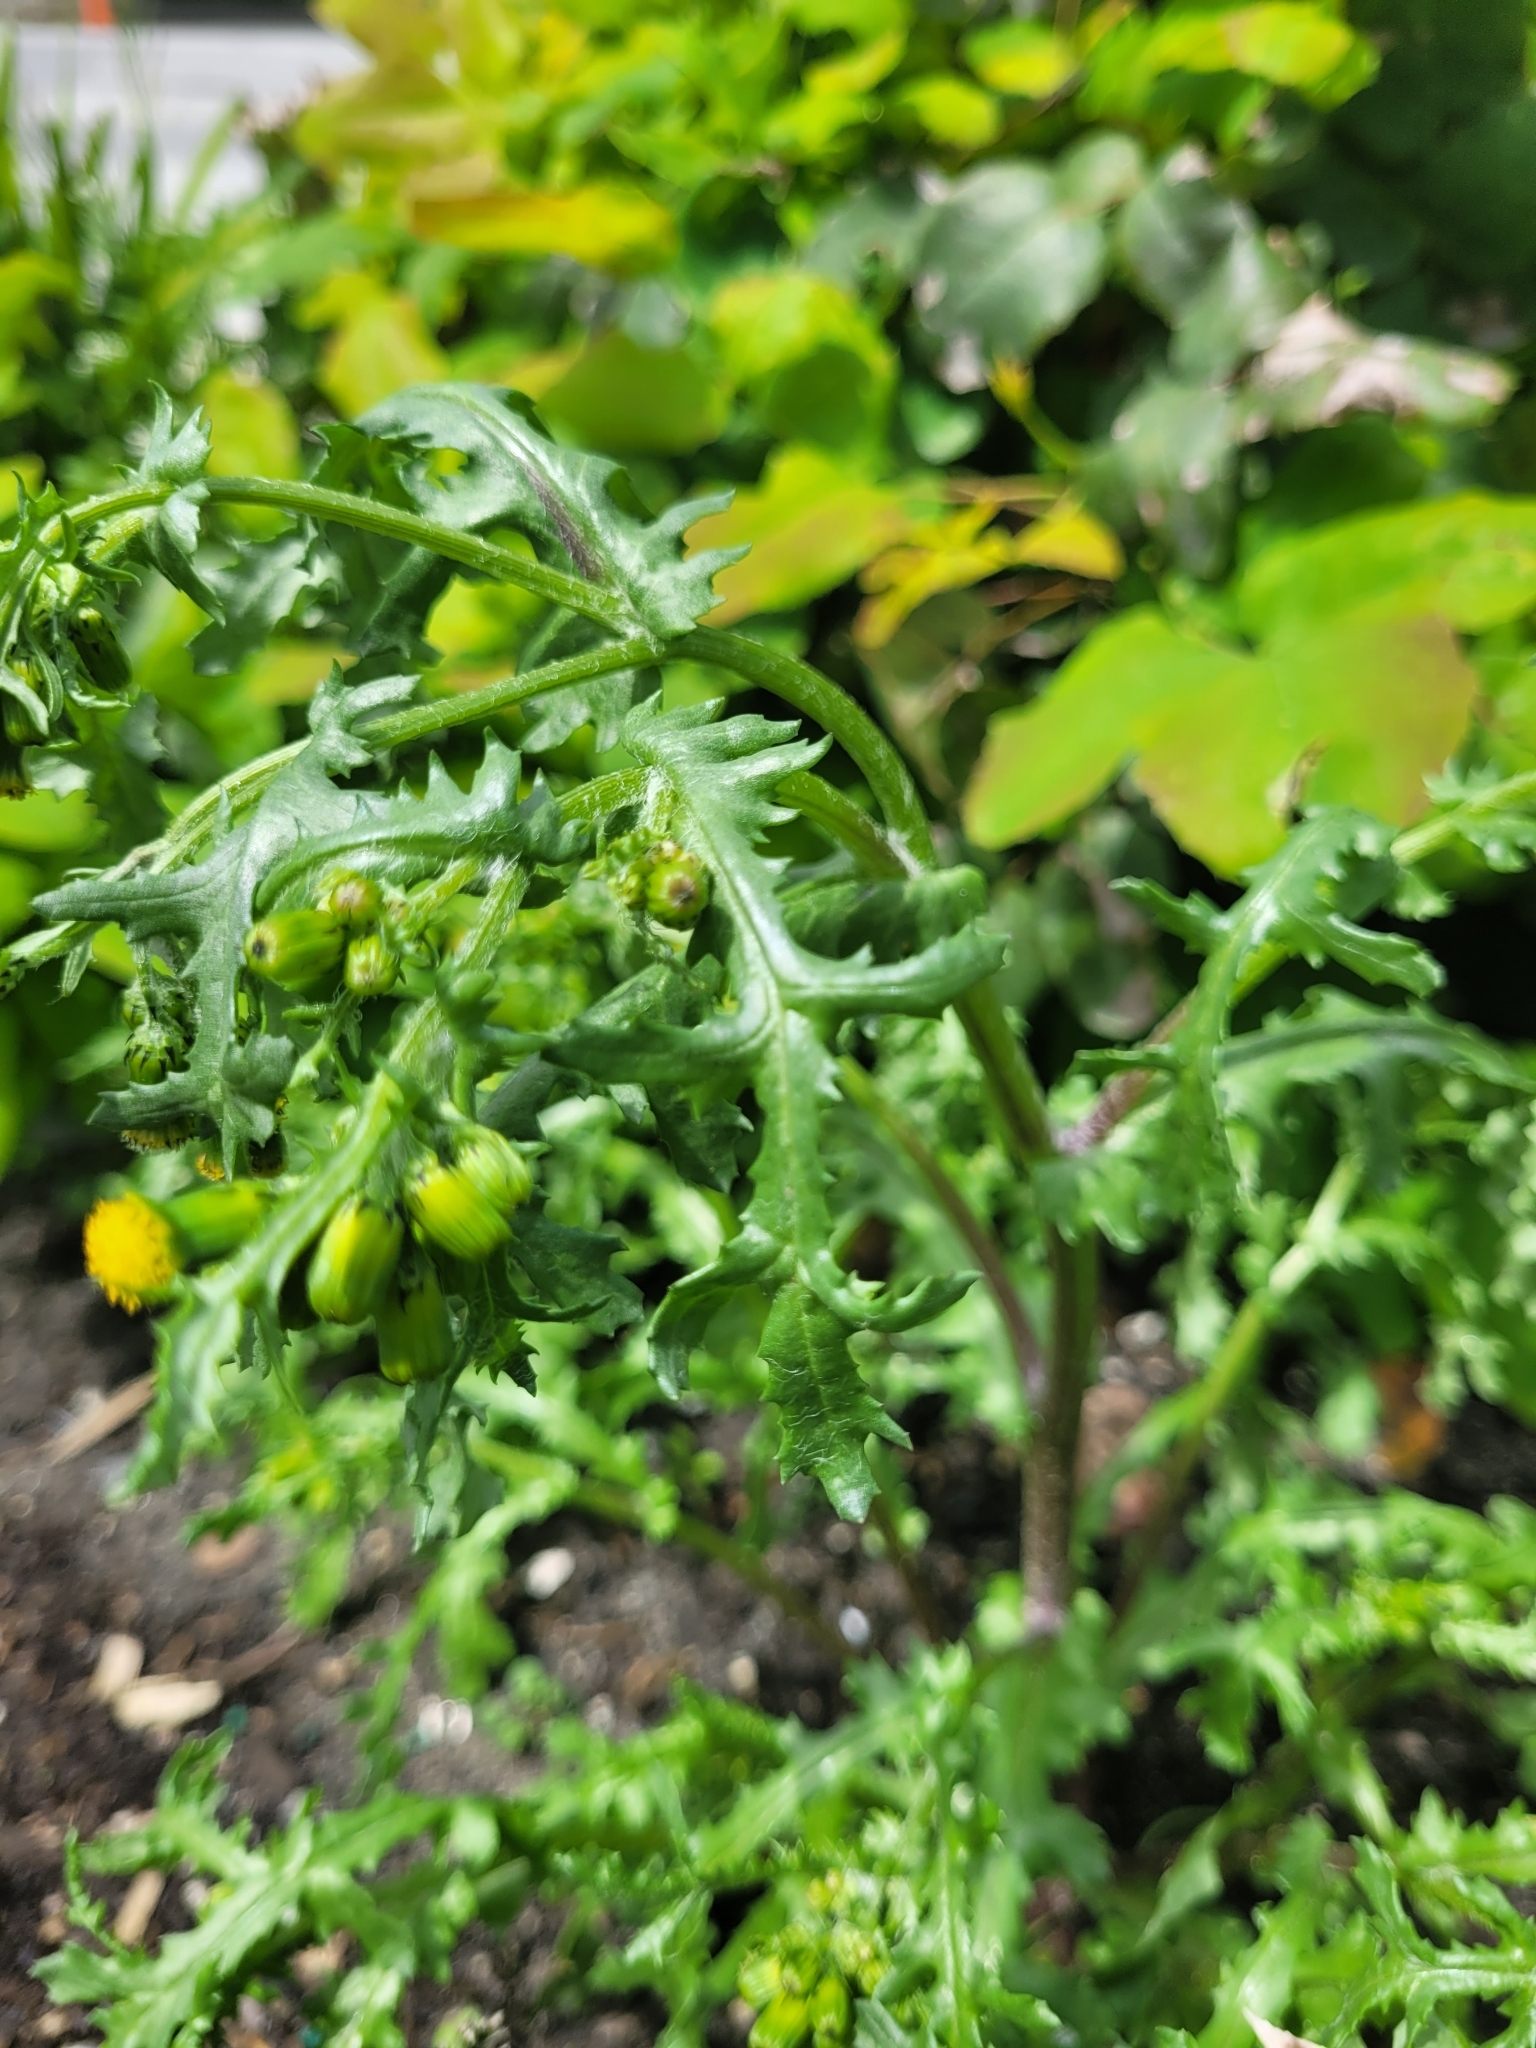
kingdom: Plantae
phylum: Tracheophyta
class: Magnoliopsida
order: Asterales
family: Asteraceae
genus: Senecio
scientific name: Senecio vulgaris
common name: Old-man-in-the-spring
